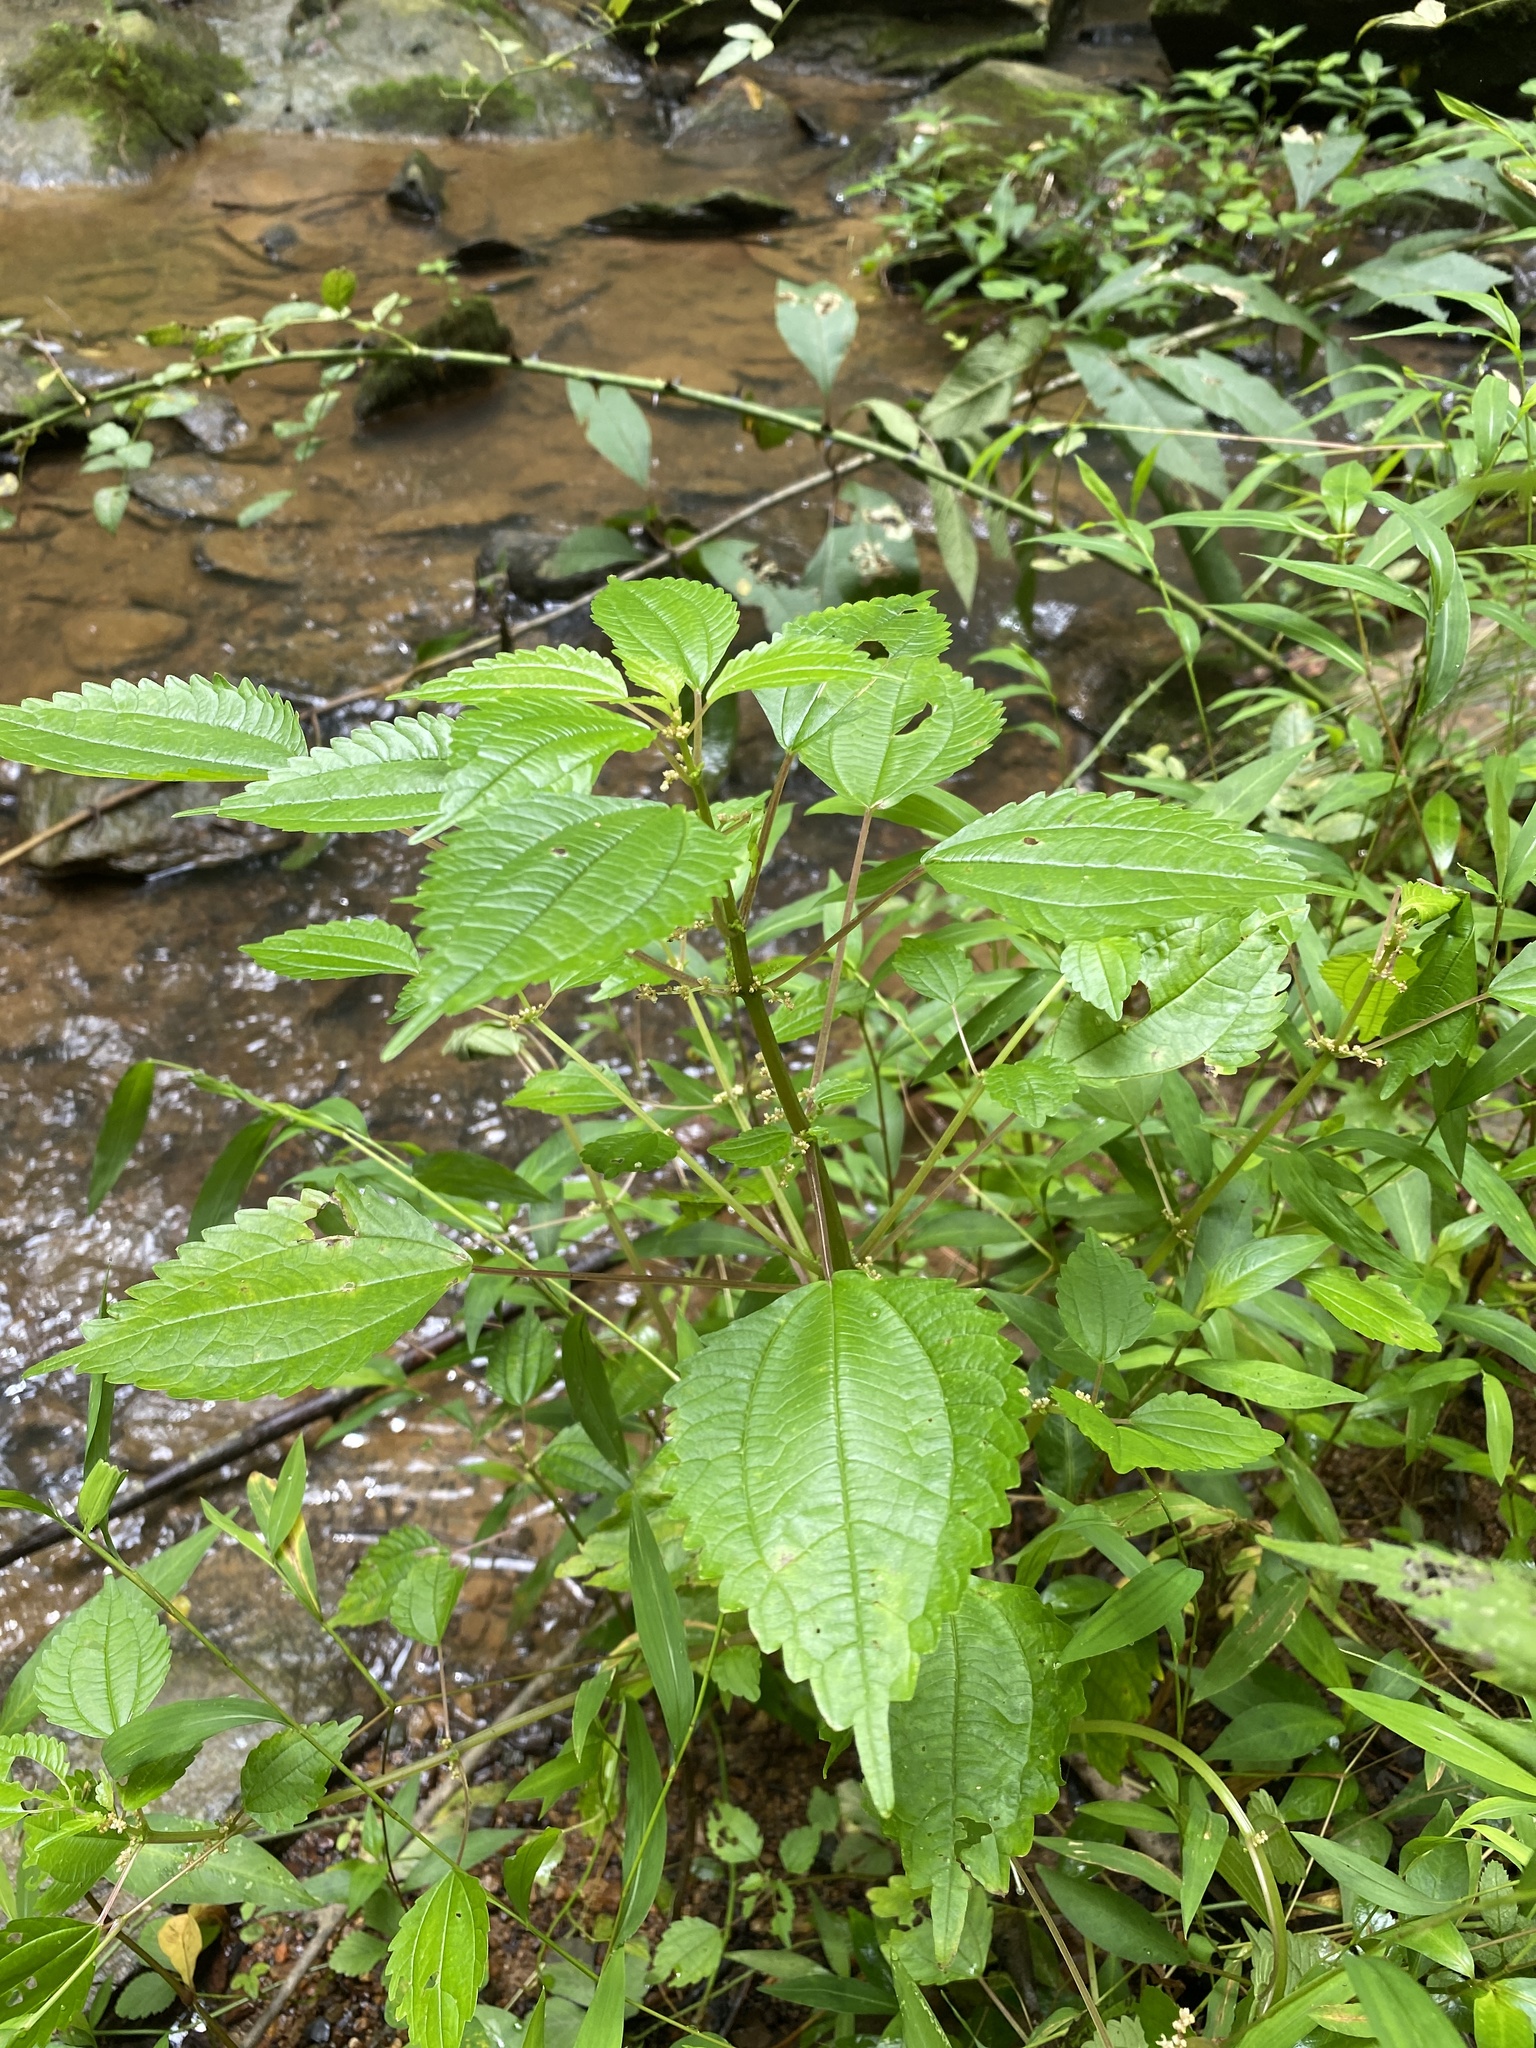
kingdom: Plantae
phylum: Tracheophyta
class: Magnoliopsida
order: Rosales
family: Urticaceae
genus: Pilea
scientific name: Pilea pumila
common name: Clearweed
